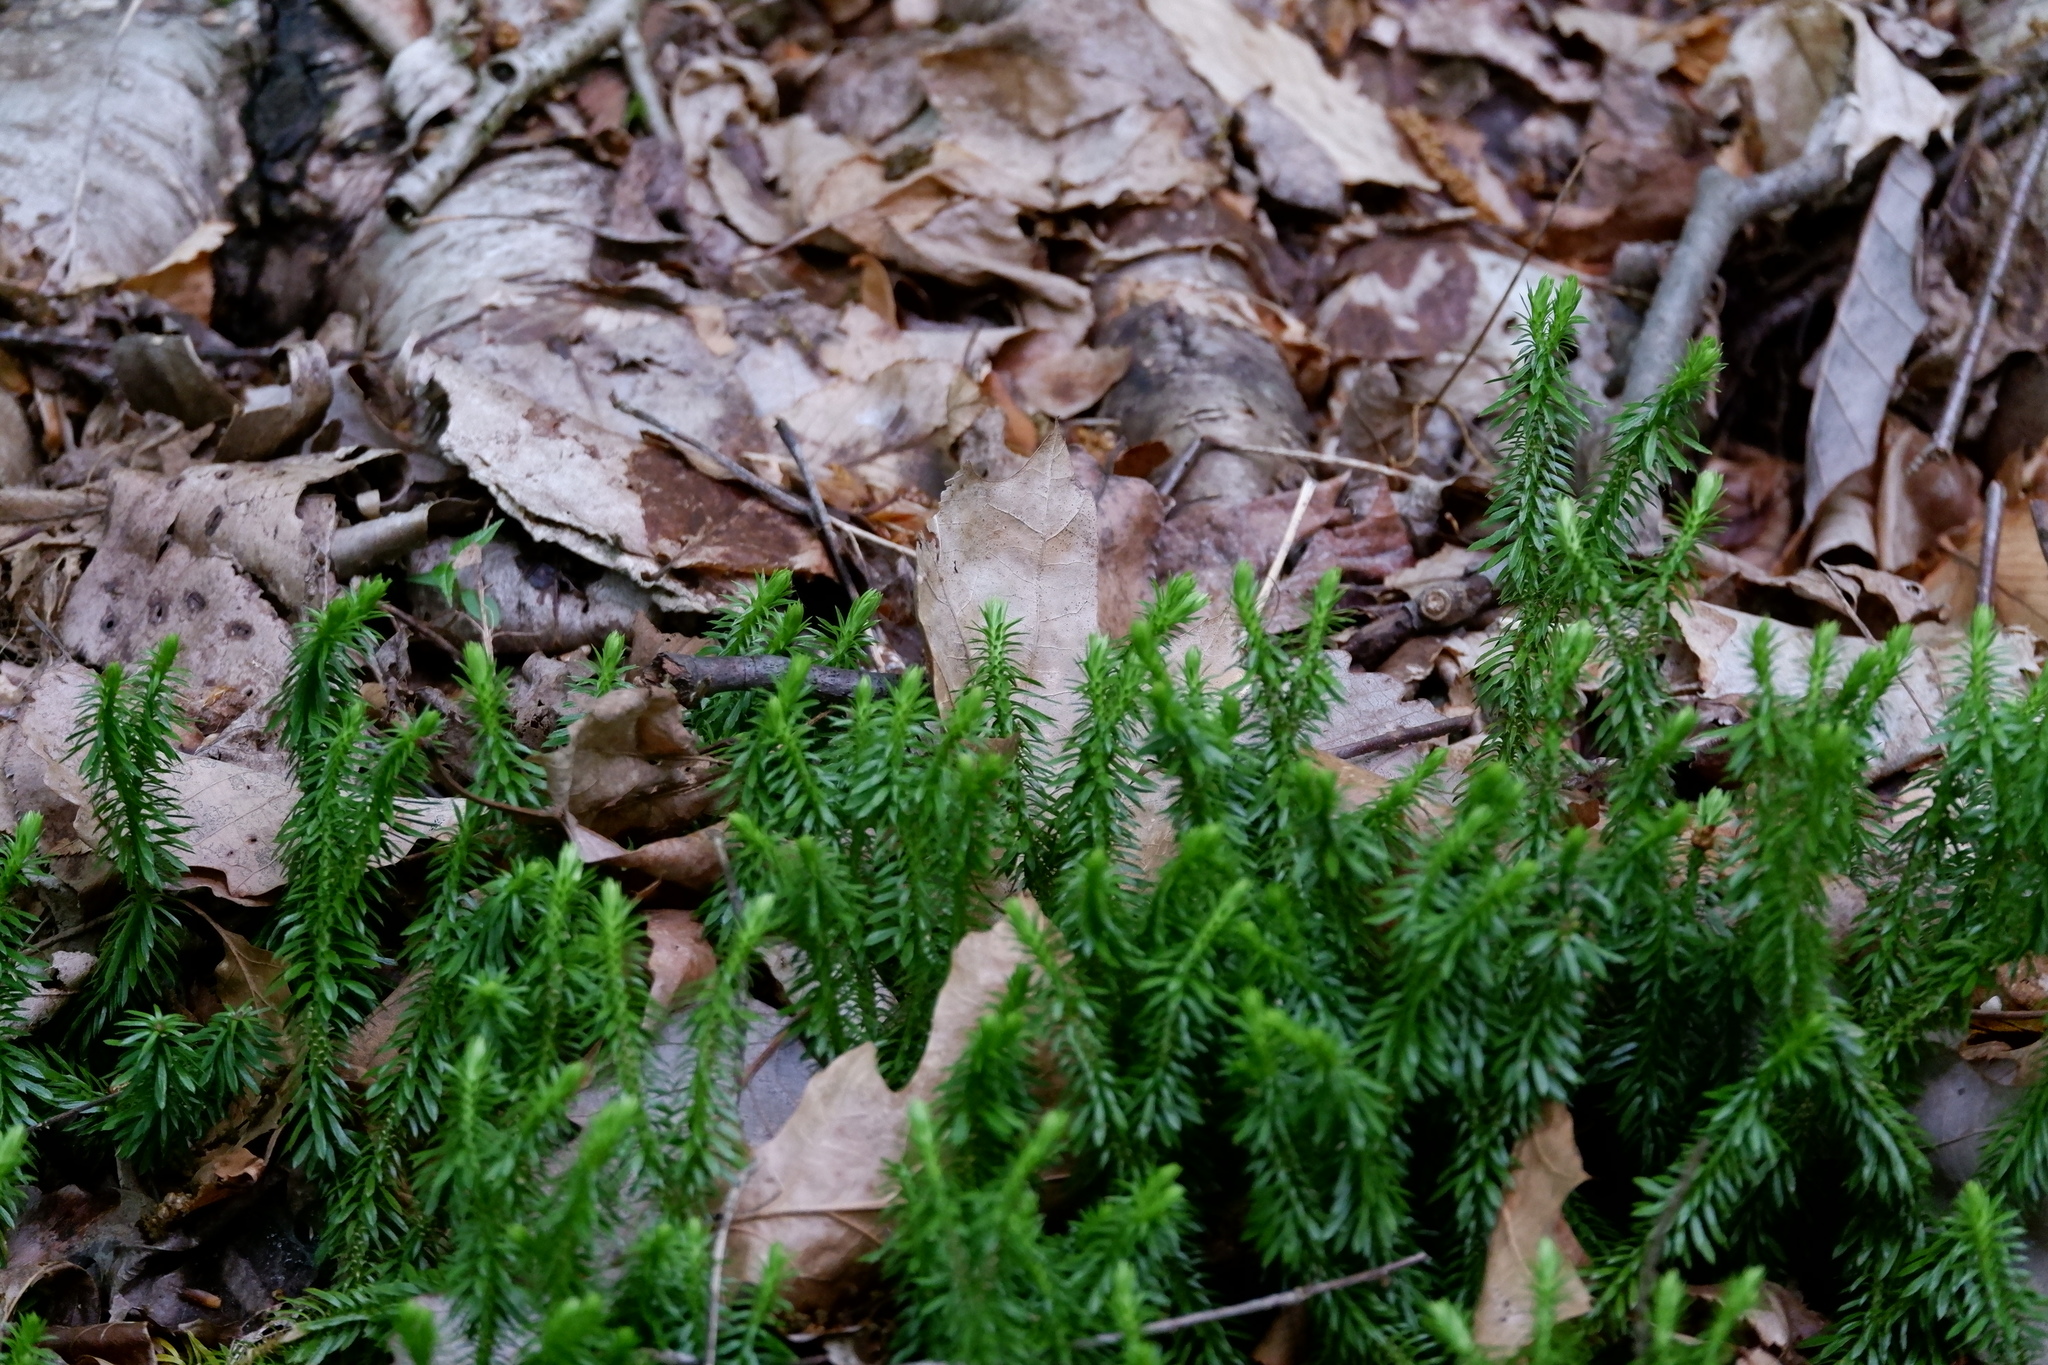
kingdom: Plantae
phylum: Tracheophyta
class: Lycopodiopsida
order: Lycopodiales
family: Lycopodiaceae
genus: Huperzia
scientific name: Huperzia lucidula
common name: Shining clubmoss
